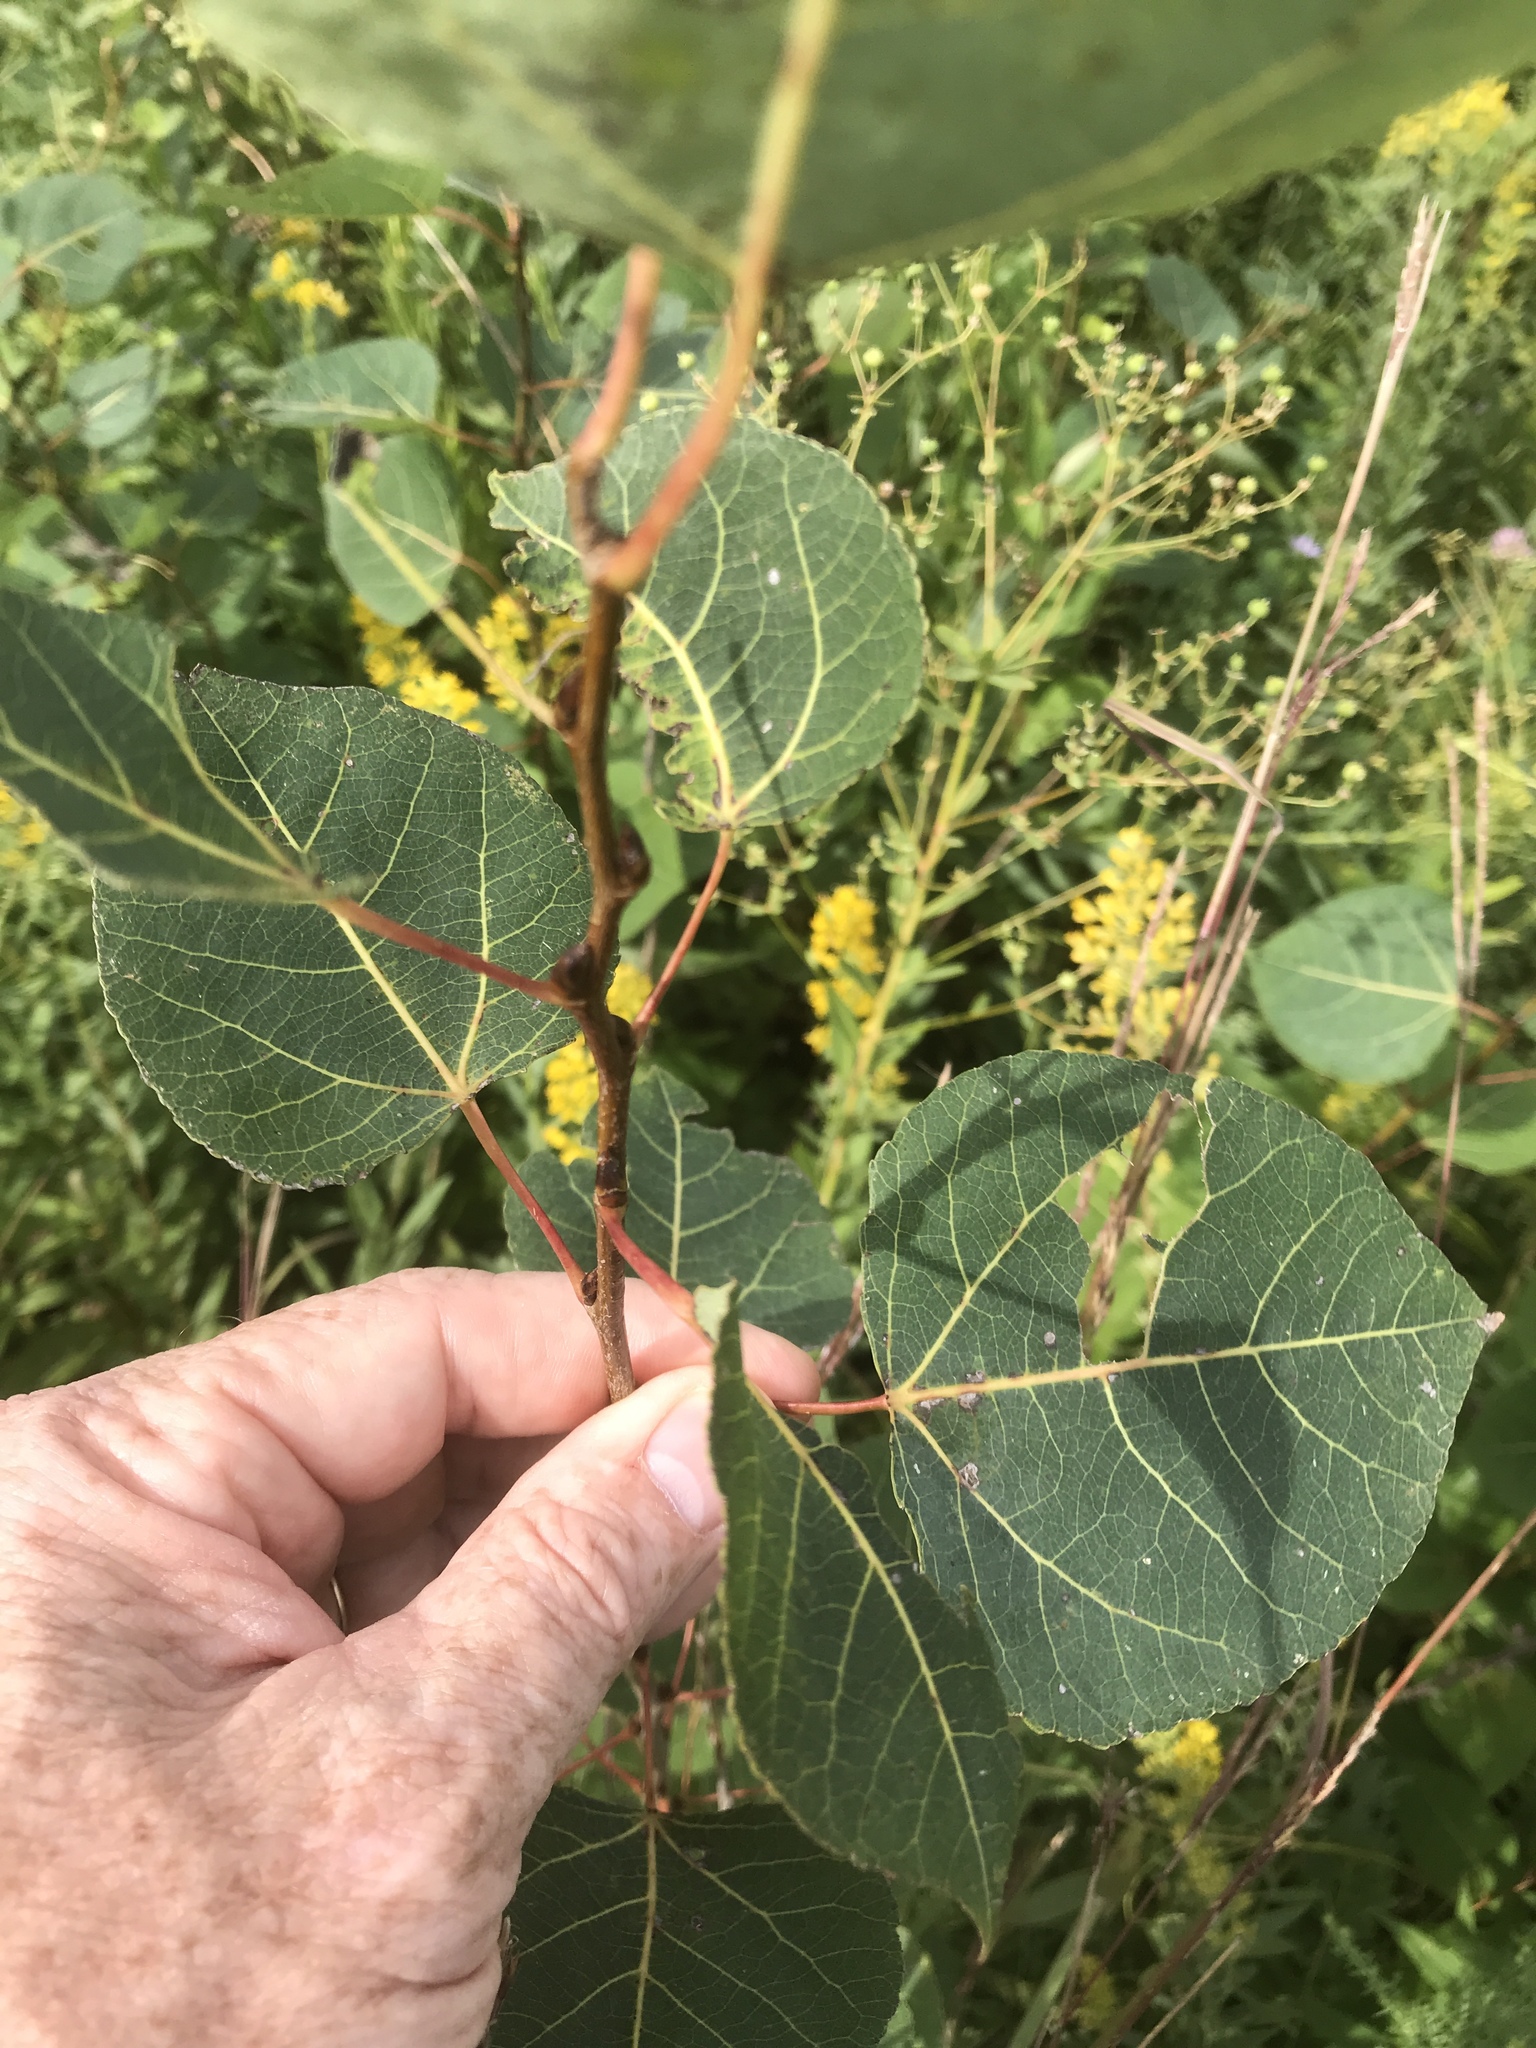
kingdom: Plantae
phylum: Tracheophyta
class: Magnoliopsida
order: Malpighiales
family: Salicaceae
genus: Populus
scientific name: Populus tremuloides
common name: Quaking aspen
